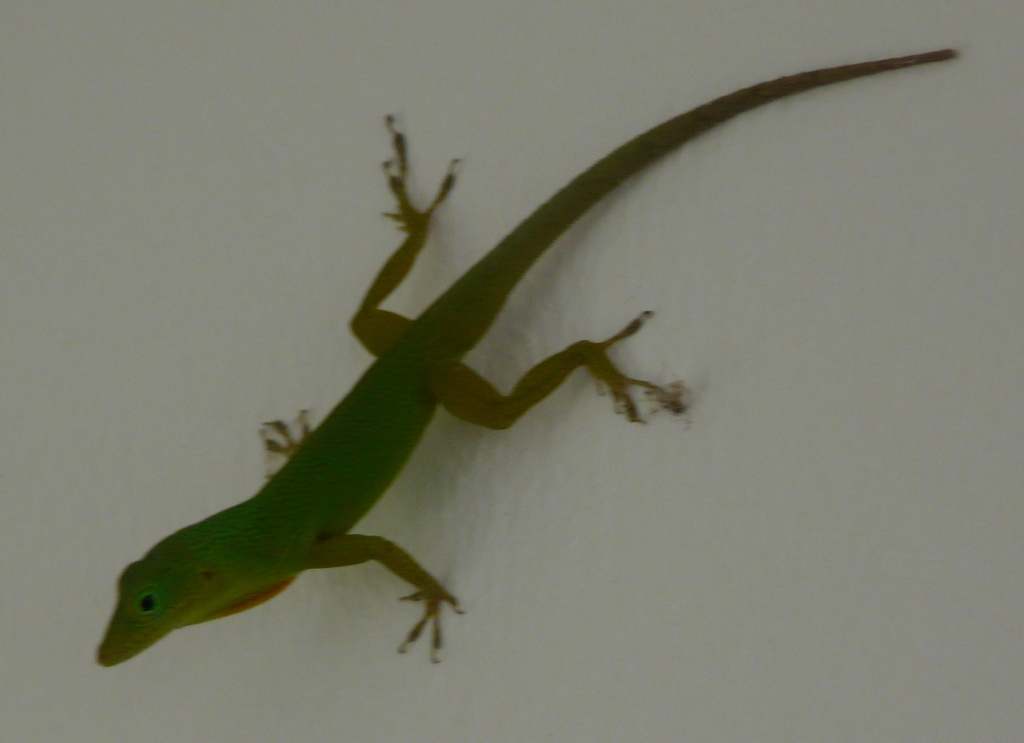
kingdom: Animalia
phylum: Chordata
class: Squamata
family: Dactyloidae
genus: Anolis
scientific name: Anolis grahami
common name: Graham's anole
